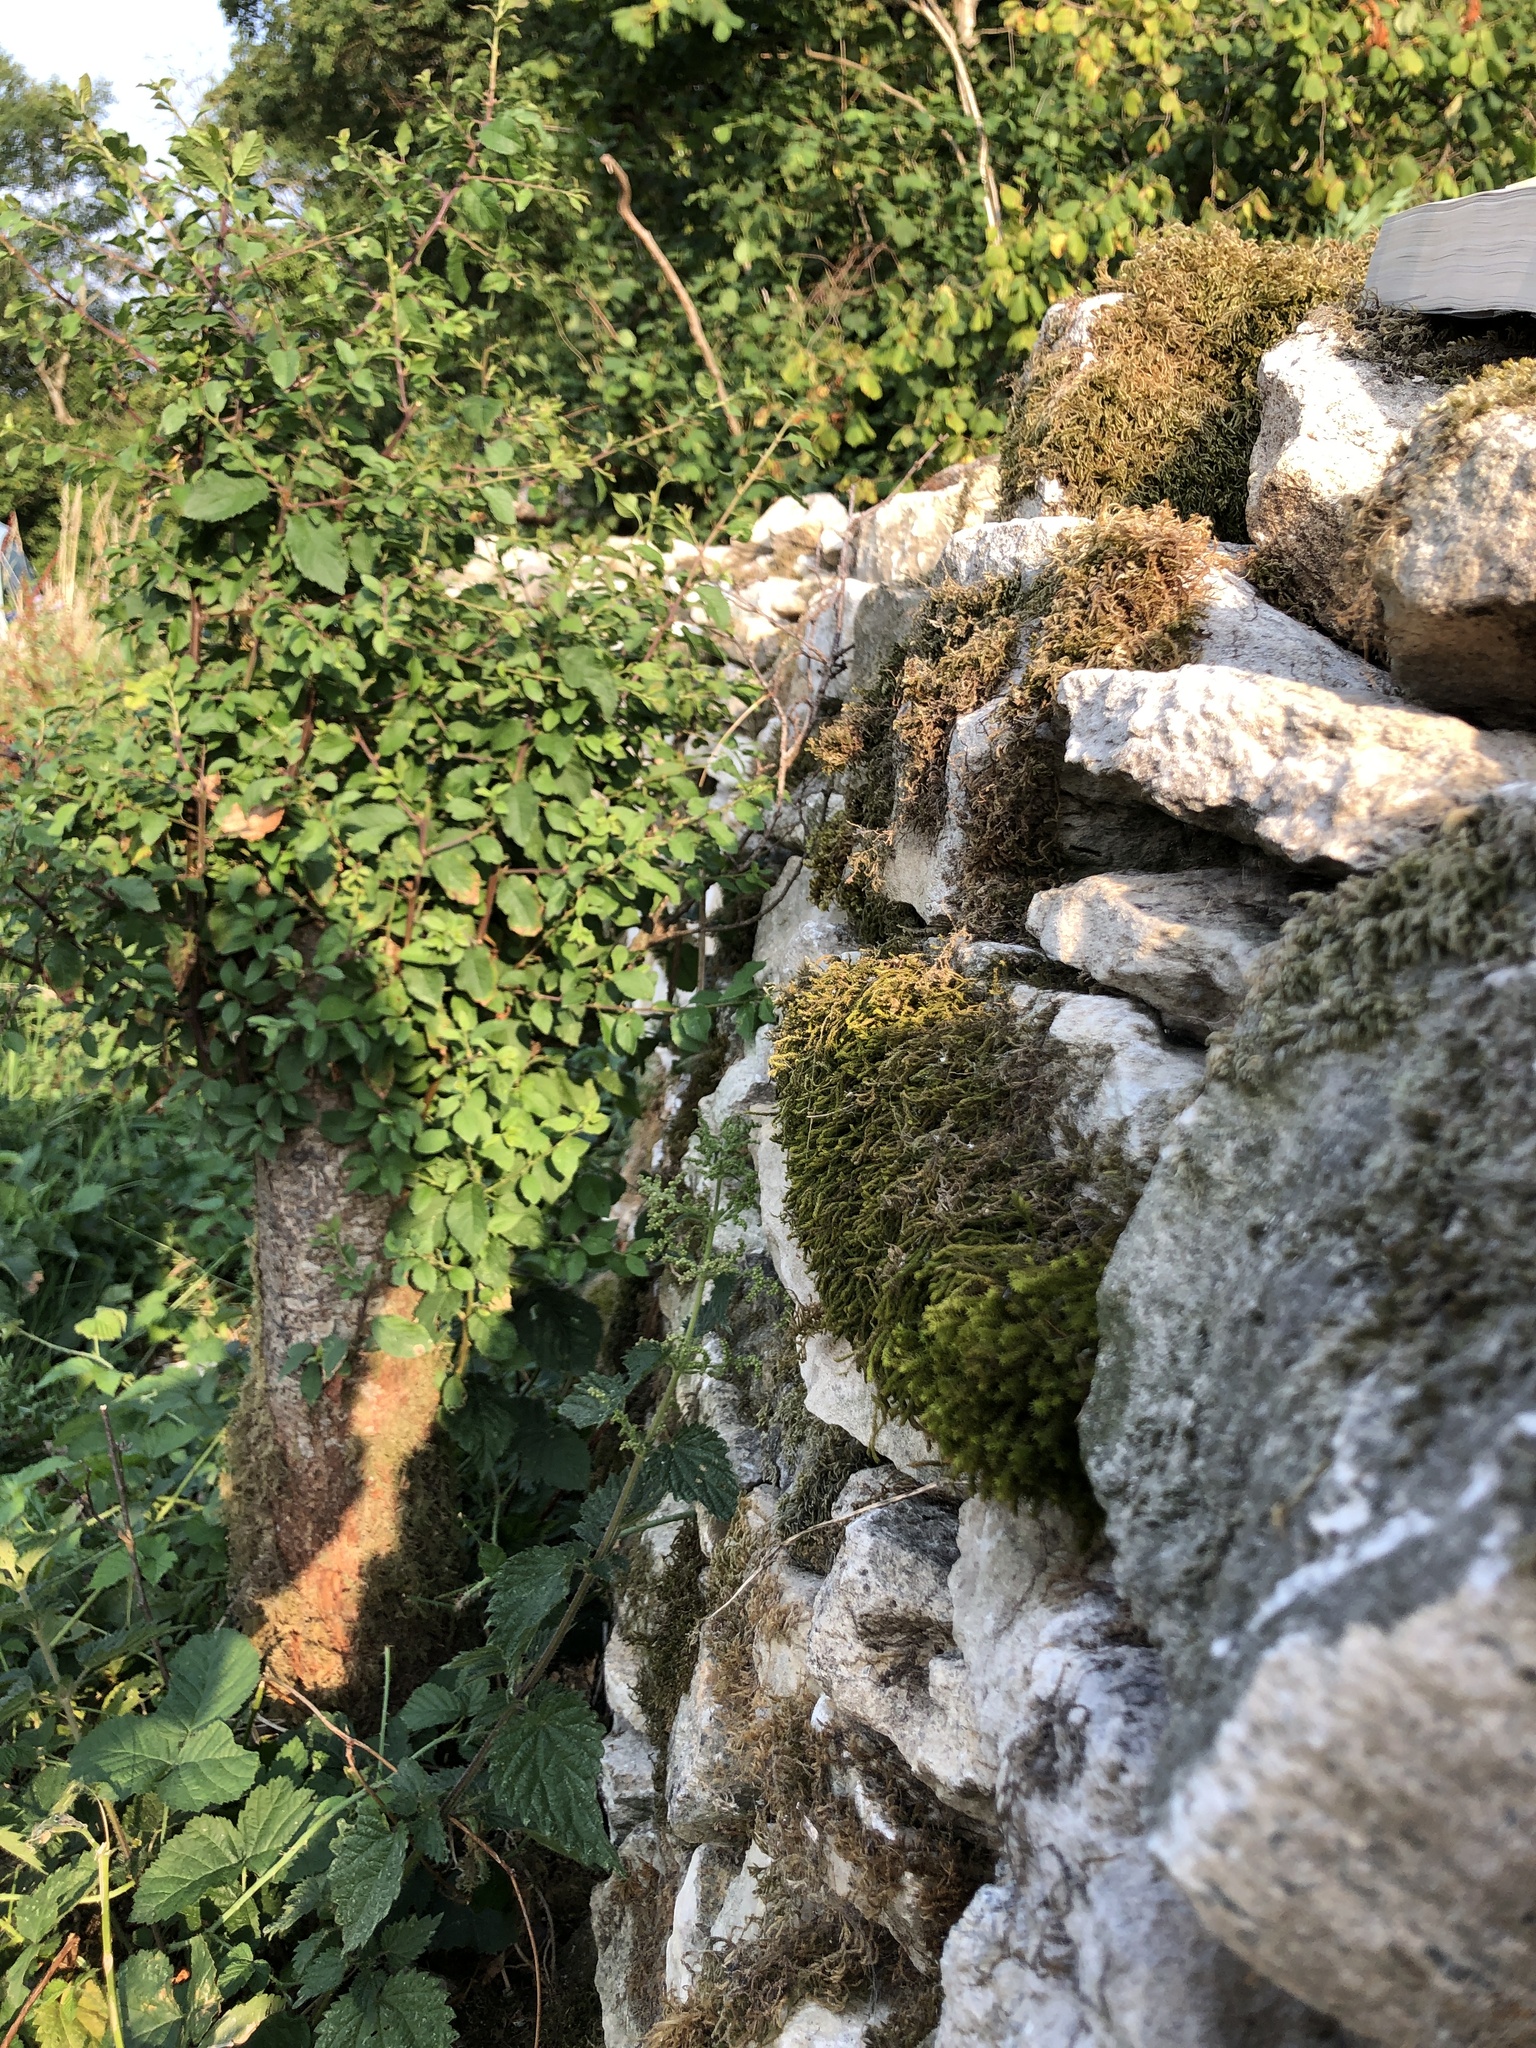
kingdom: Plantae
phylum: Bryophyta
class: Bryopsida
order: Hypnales
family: Anomodontaceae
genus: Anomodon
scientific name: Anomodon viticulosus
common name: Tall anomodon
